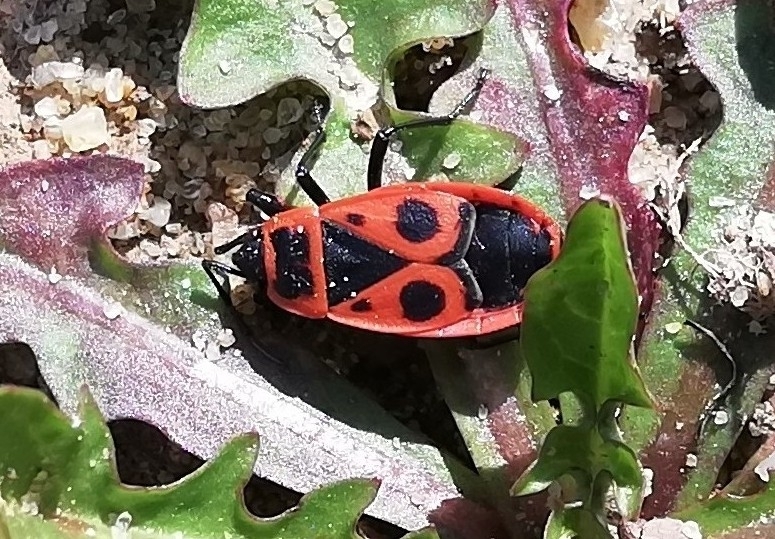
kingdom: Animalia
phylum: Arthropoda
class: Insecta
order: Hemiptera
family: Pyrrhocoridae
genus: Pyrrhocoris
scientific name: Pyrrhocoris apterus
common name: Firebug
